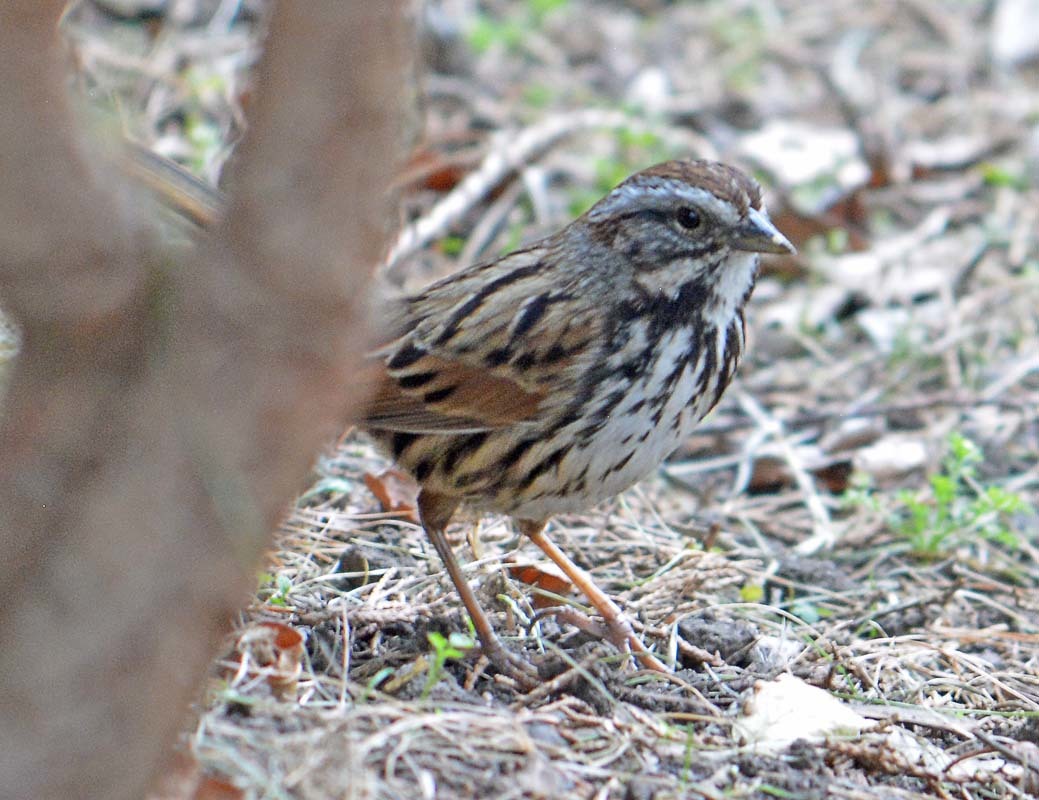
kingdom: Animalia
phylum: Chordata
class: Aves
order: Passeriformes
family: Passerellidae
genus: Melospiza
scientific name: Melospiza melodia
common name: Song sparrow
